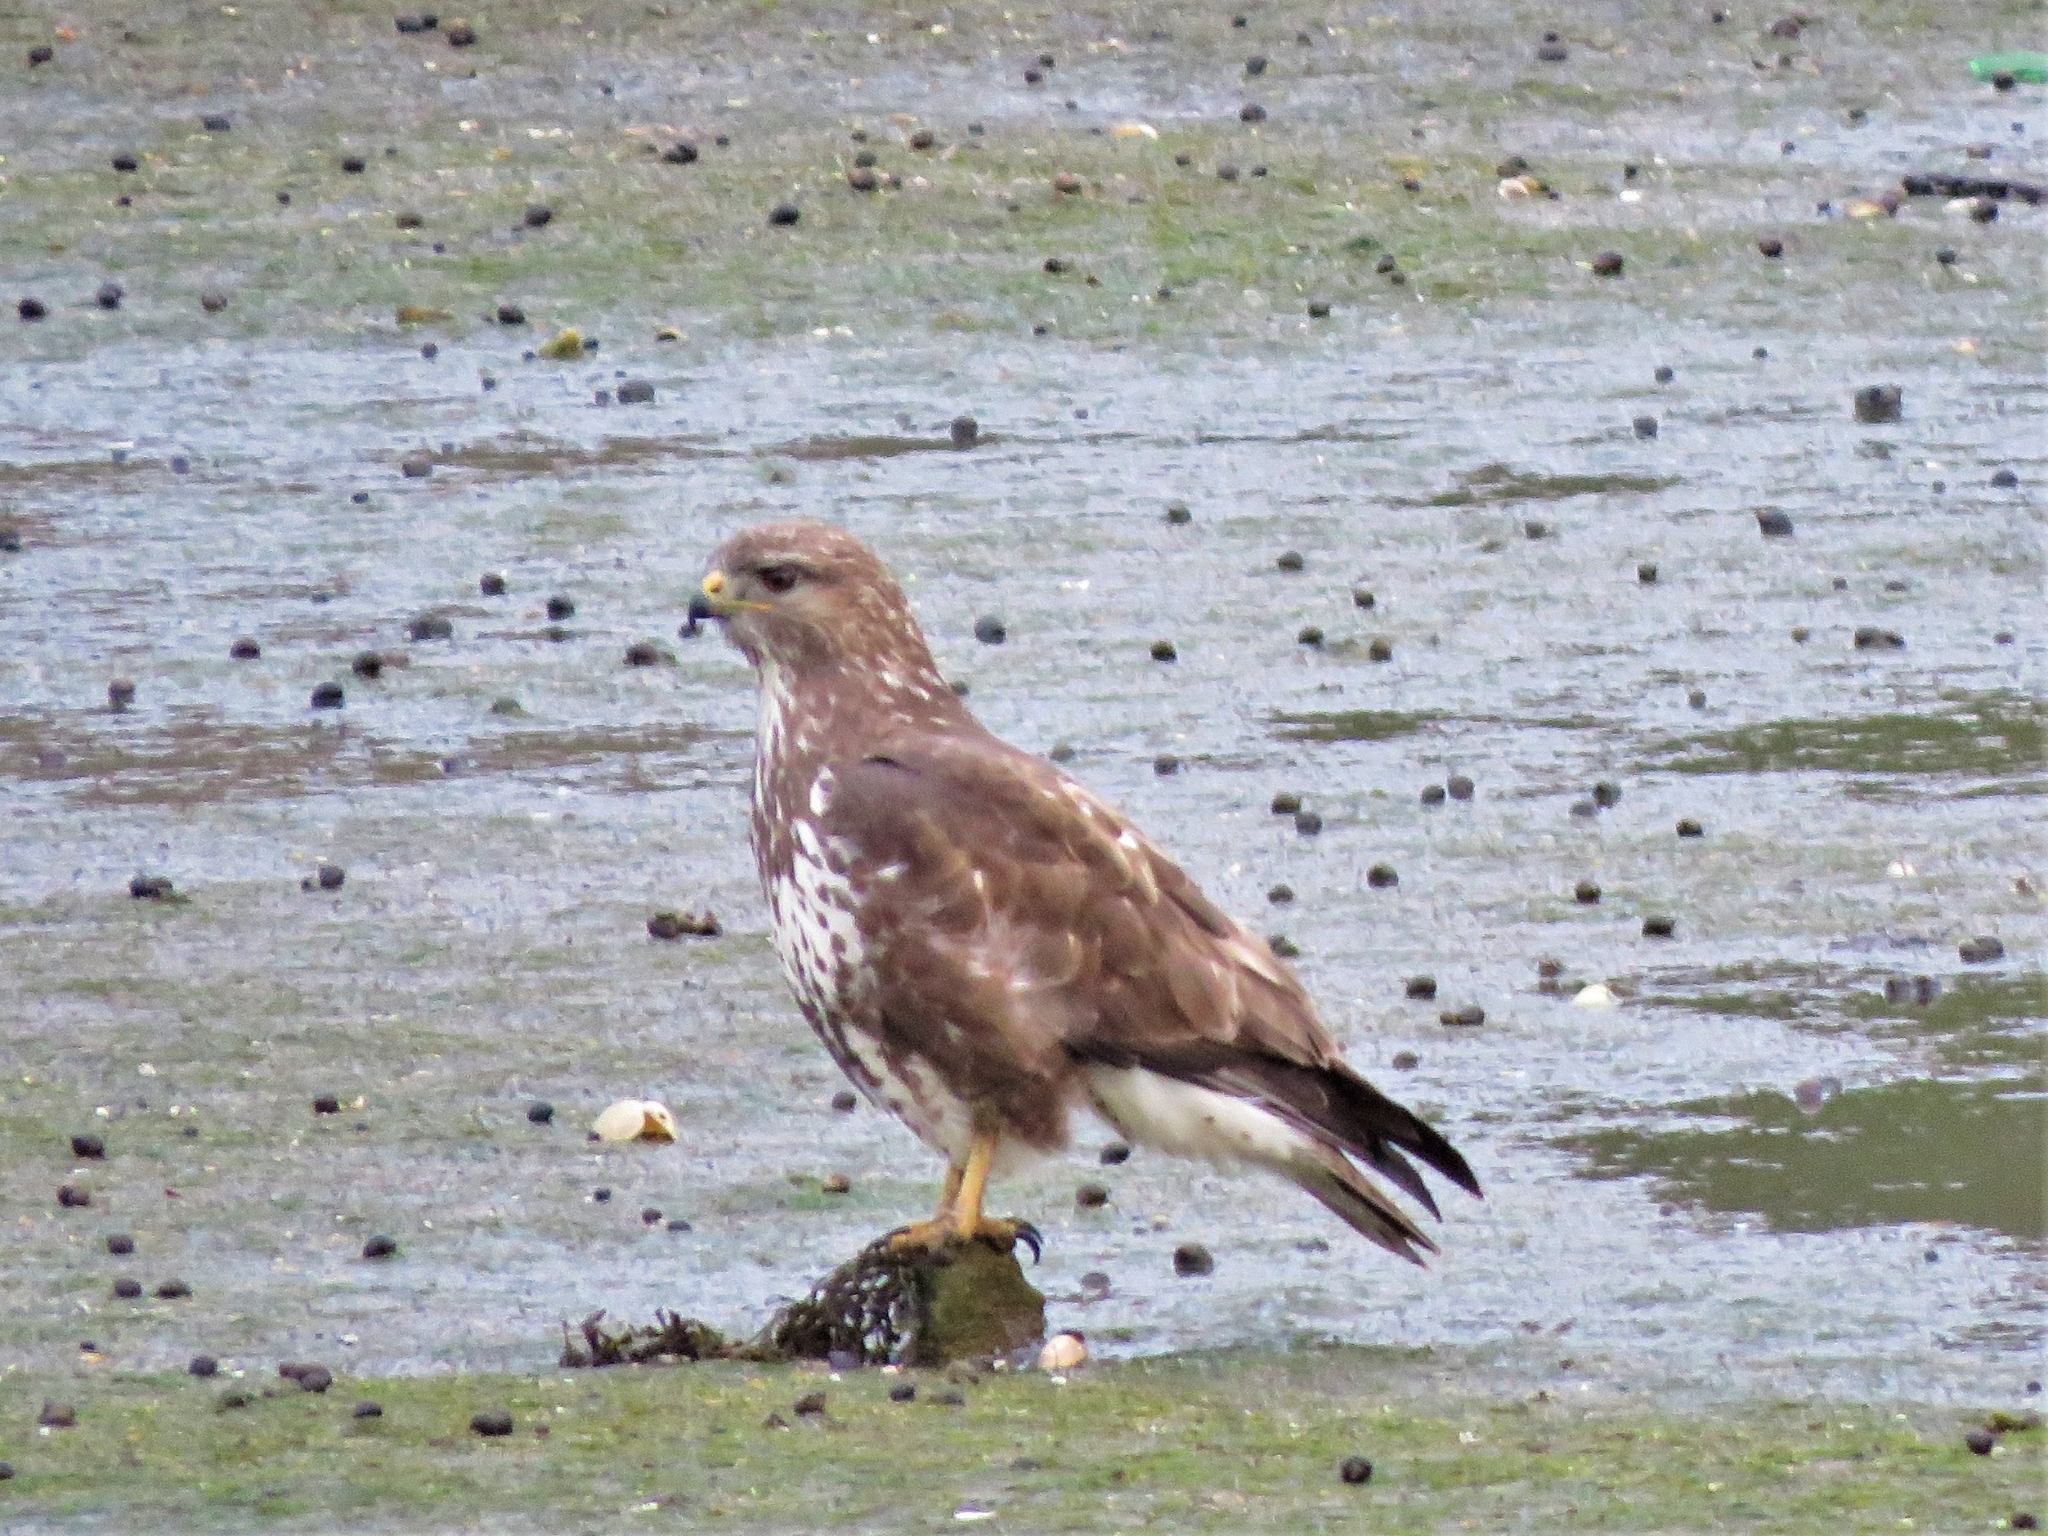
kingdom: Animalia
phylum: Chordata
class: Aves
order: Accipitriformes
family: Accipitridae
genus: Buteo
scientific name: Buteo buteo
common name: Common buzzard
